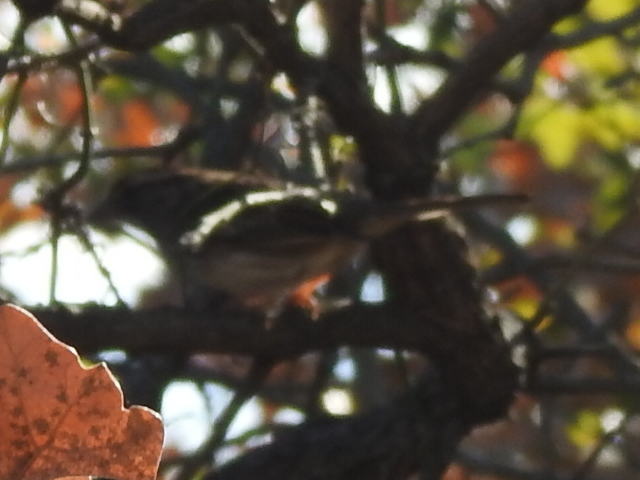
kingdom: Animalia
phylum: Chordata
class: Aves
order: Passeriformes
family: Passerellidae
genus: Zonotrichia
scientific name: Zonotrichia albicollis
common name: White-throated sparrow
